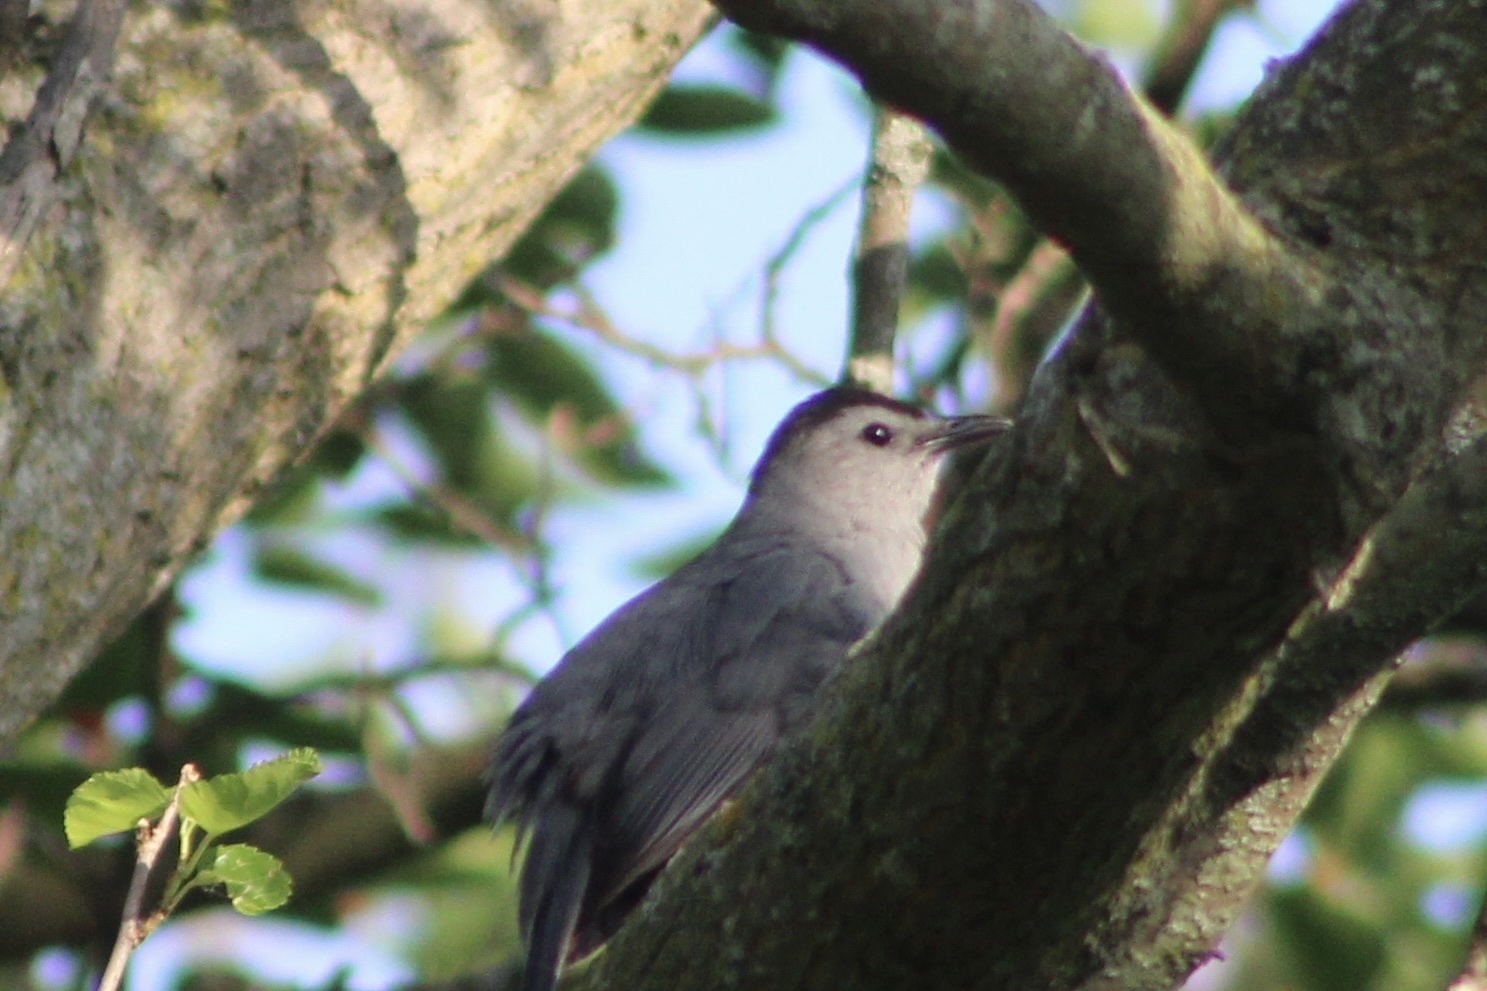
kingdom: Animalia
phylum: Chordata
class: Aves
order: Passeriformes
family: Mimidae
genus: Dumetella
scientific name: Dumetella carolinensis
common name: Gray catbird
